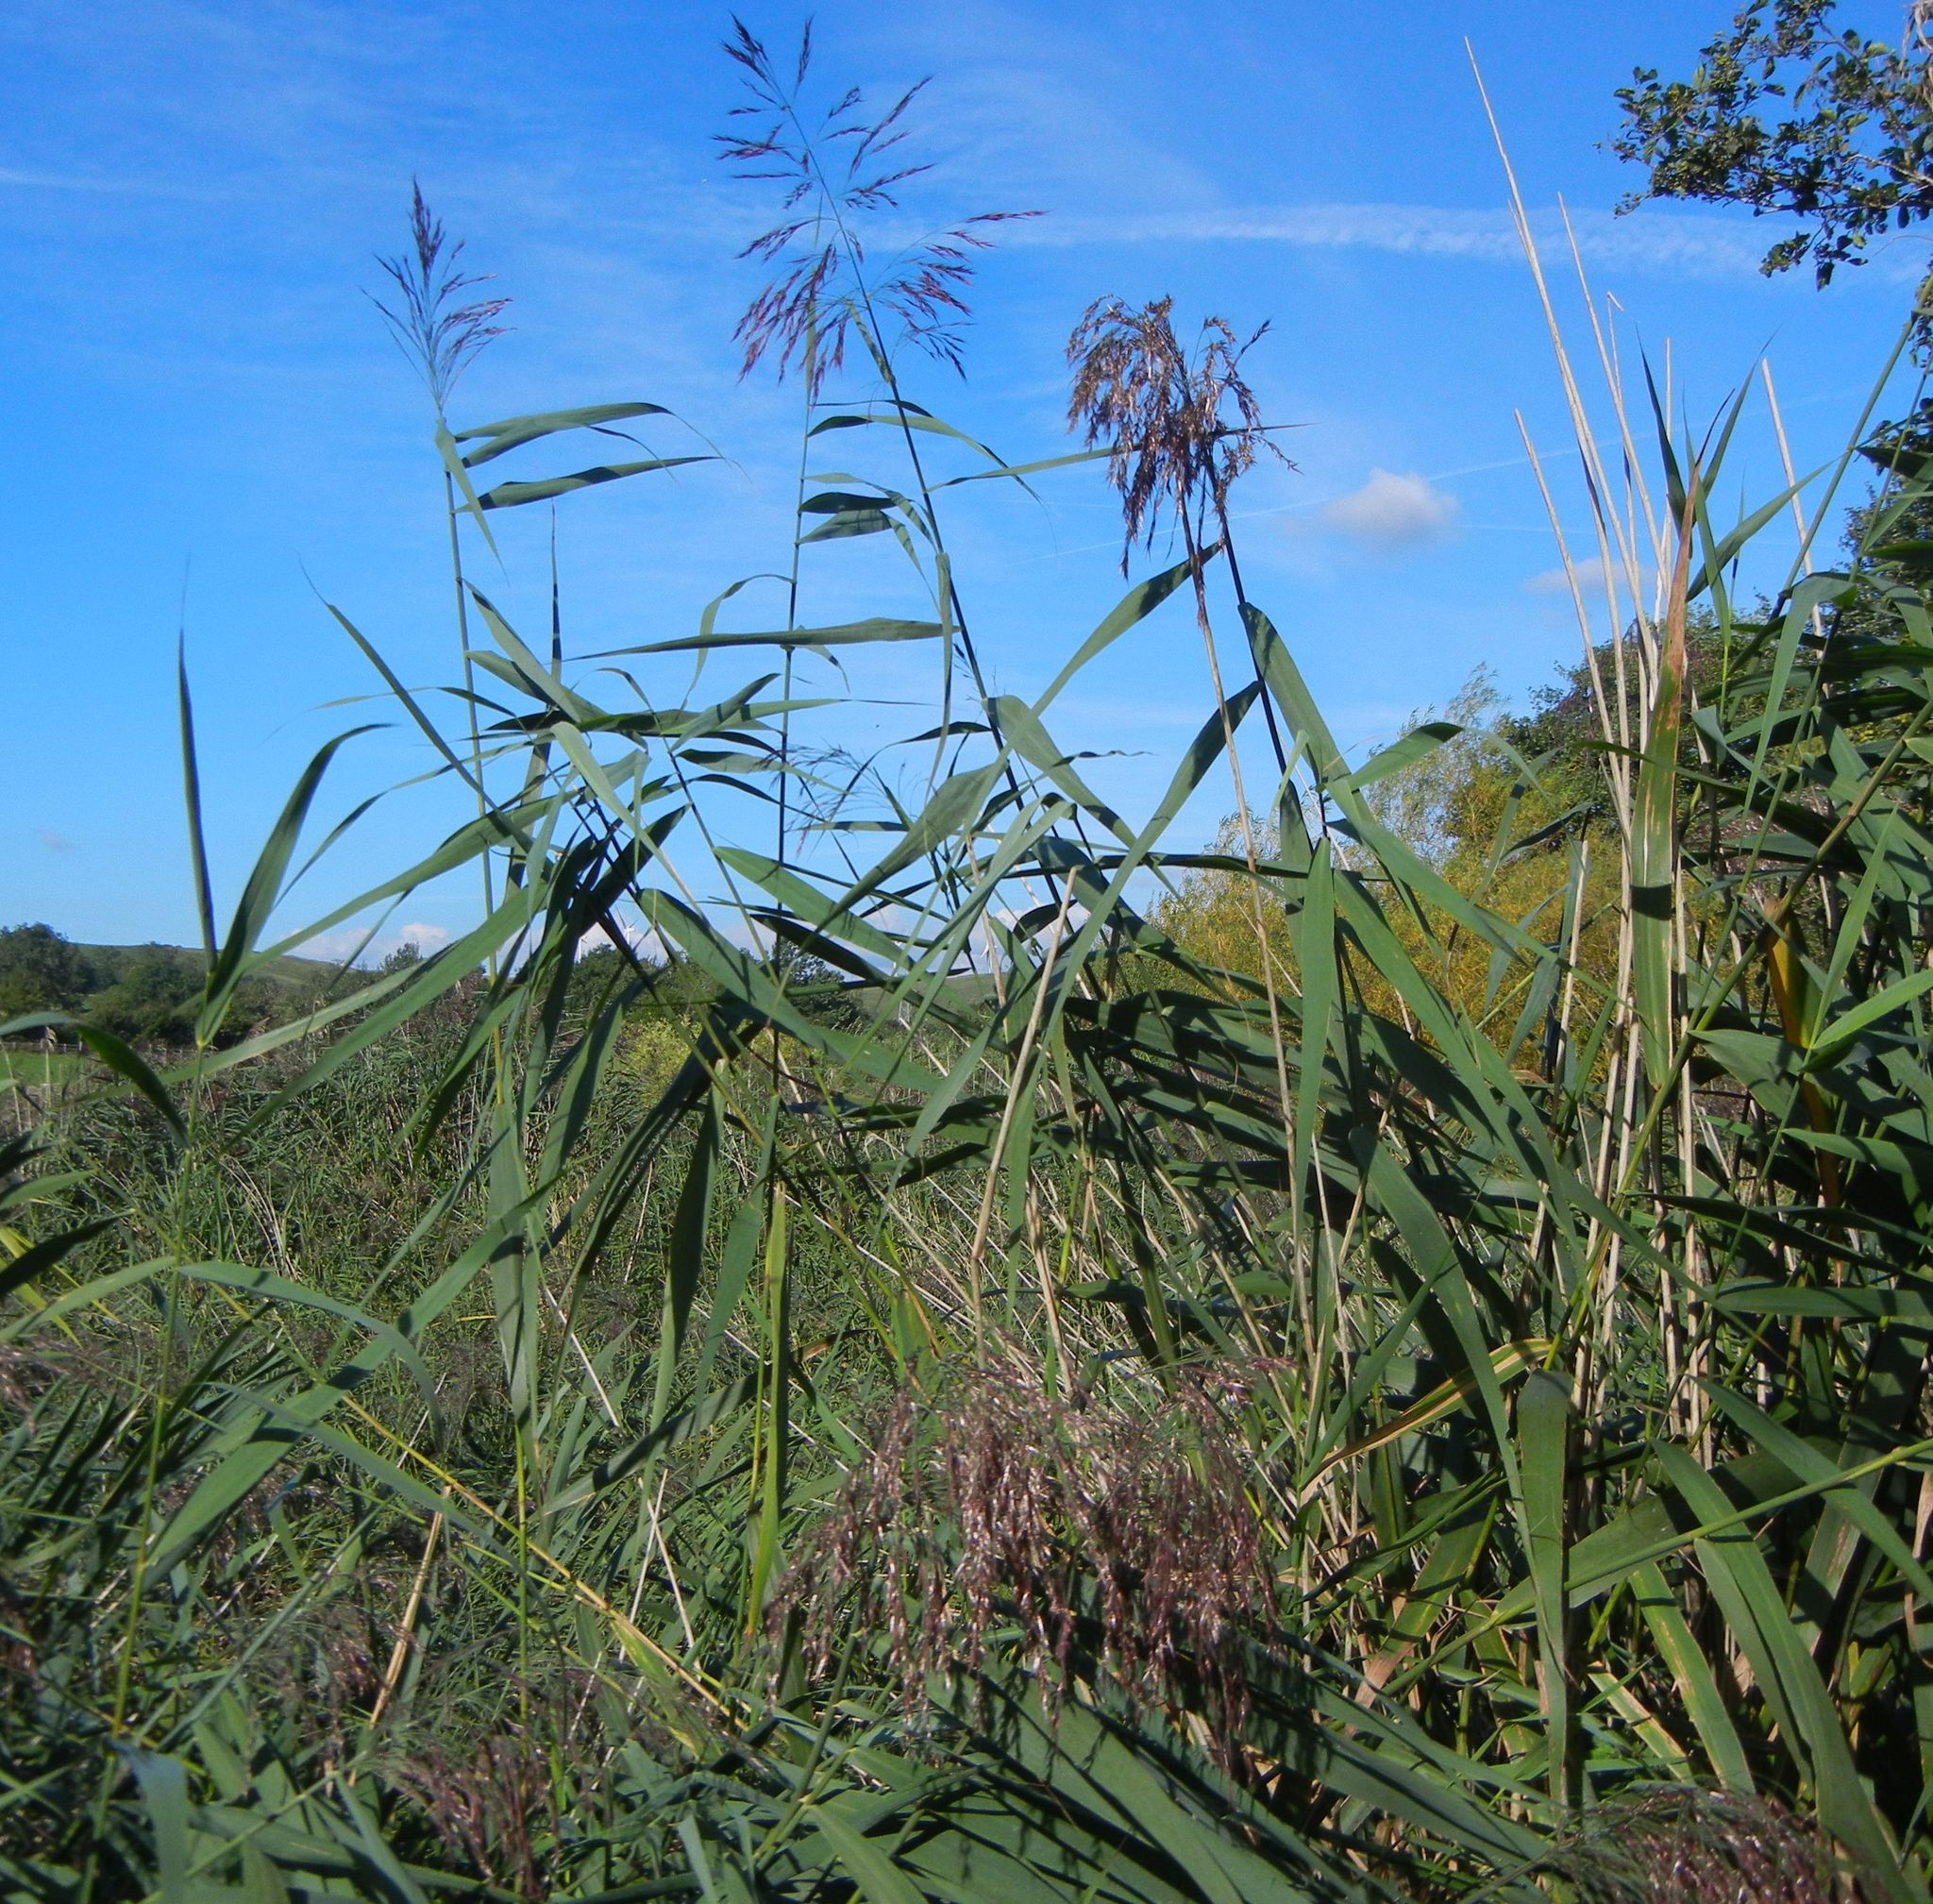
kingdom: Plantae
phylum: Tracheophyta
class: Liliopsida
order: Poales
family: Poaceae
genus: Phragmites
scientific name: Phragmites australis
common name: Common reed
